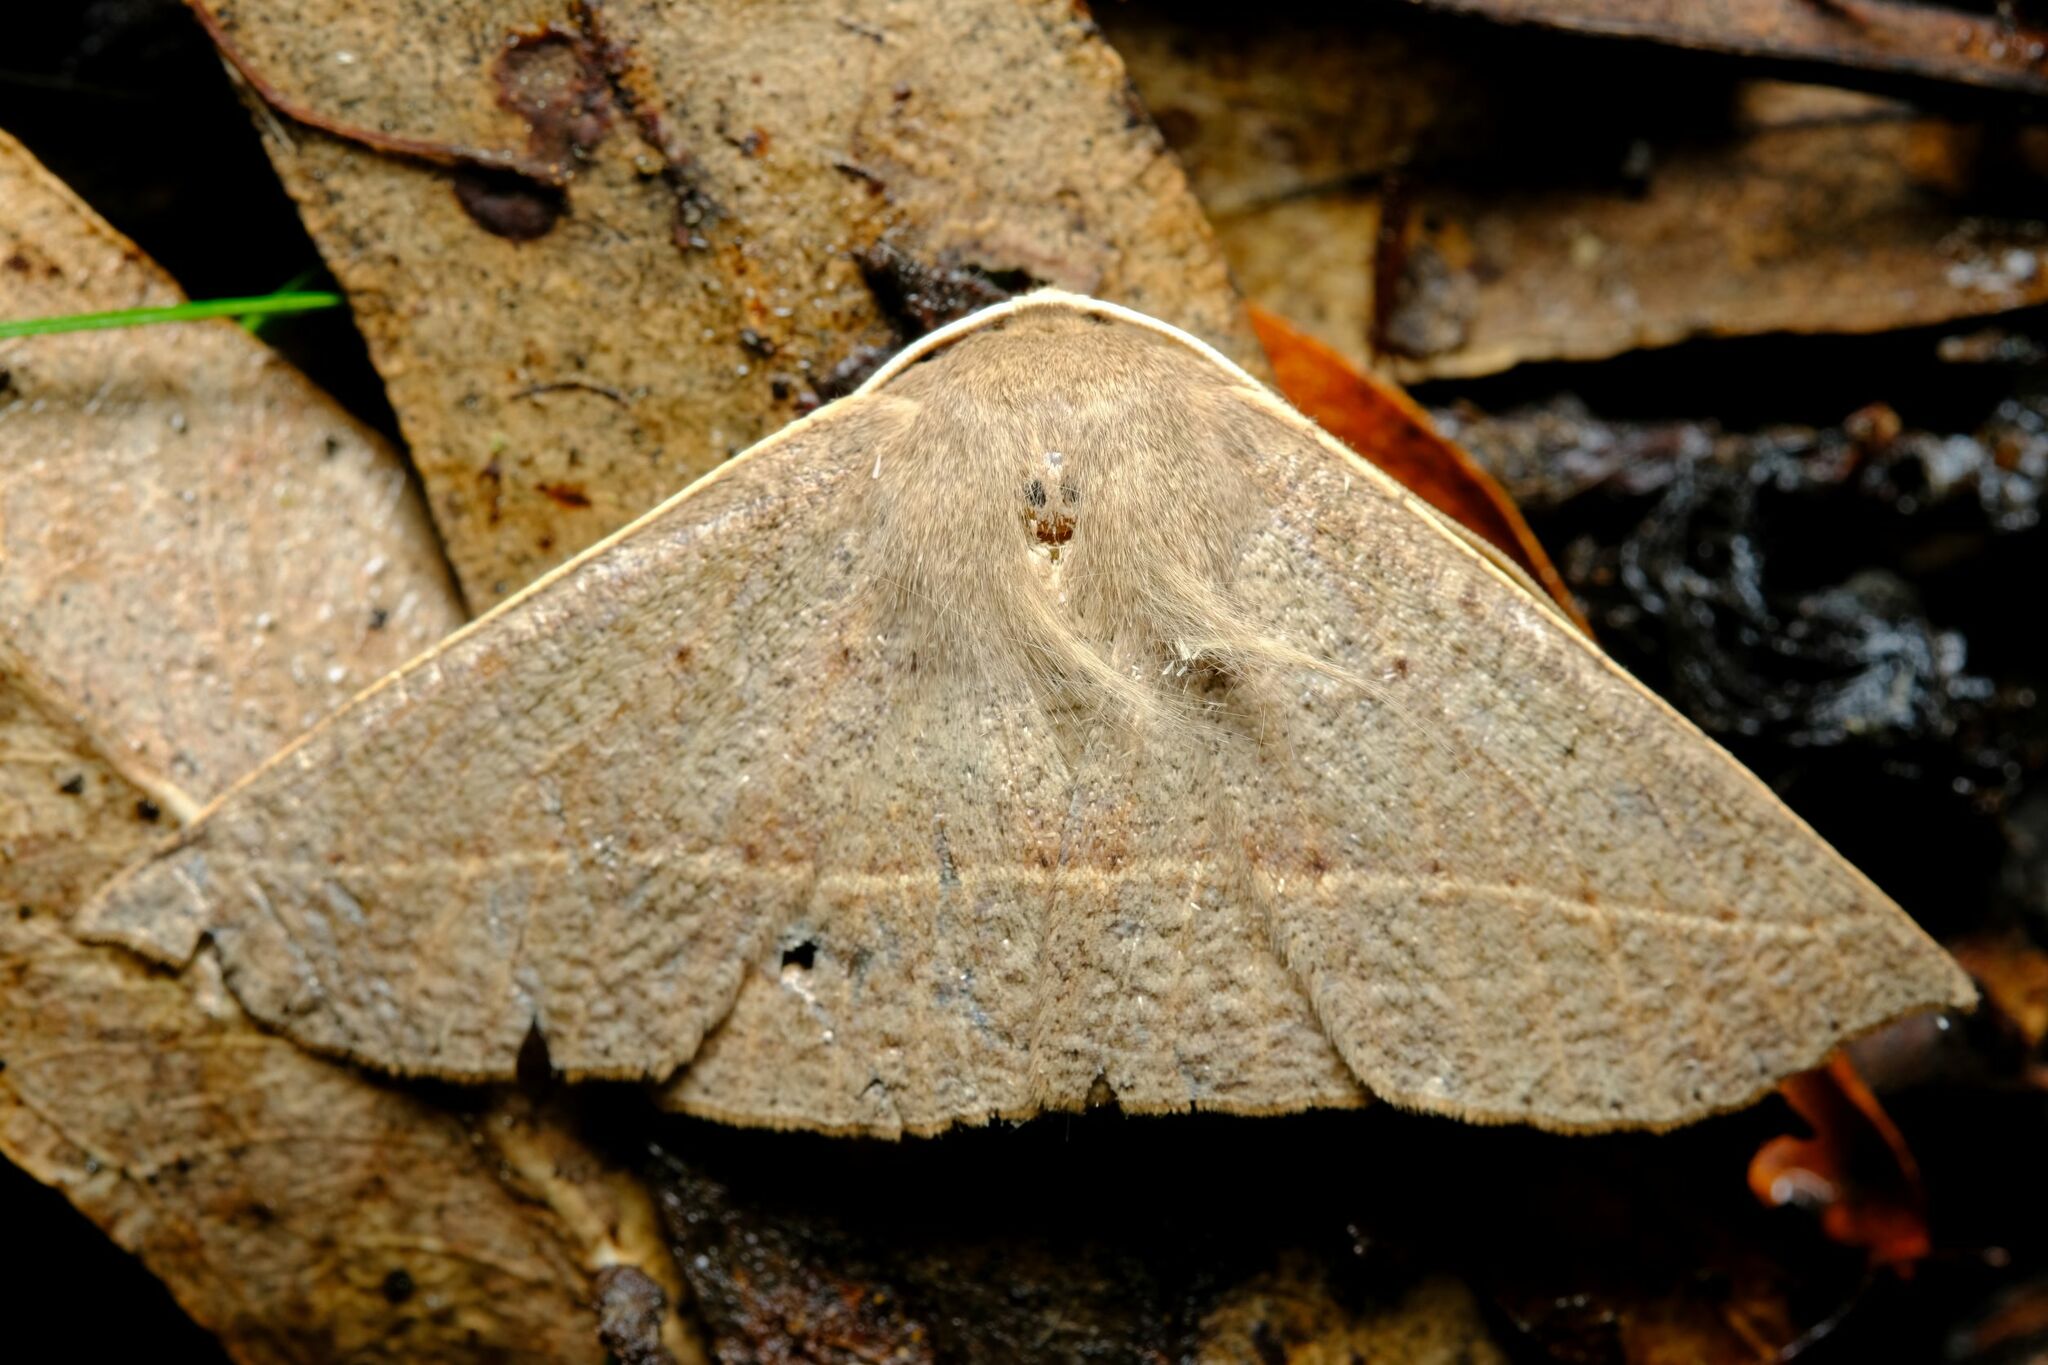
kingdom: Animalia
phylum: Arthropoda
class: Insecta
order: Lepidoptera
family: Geometridae
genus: Idiodes
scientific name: Idiodes siculoides
